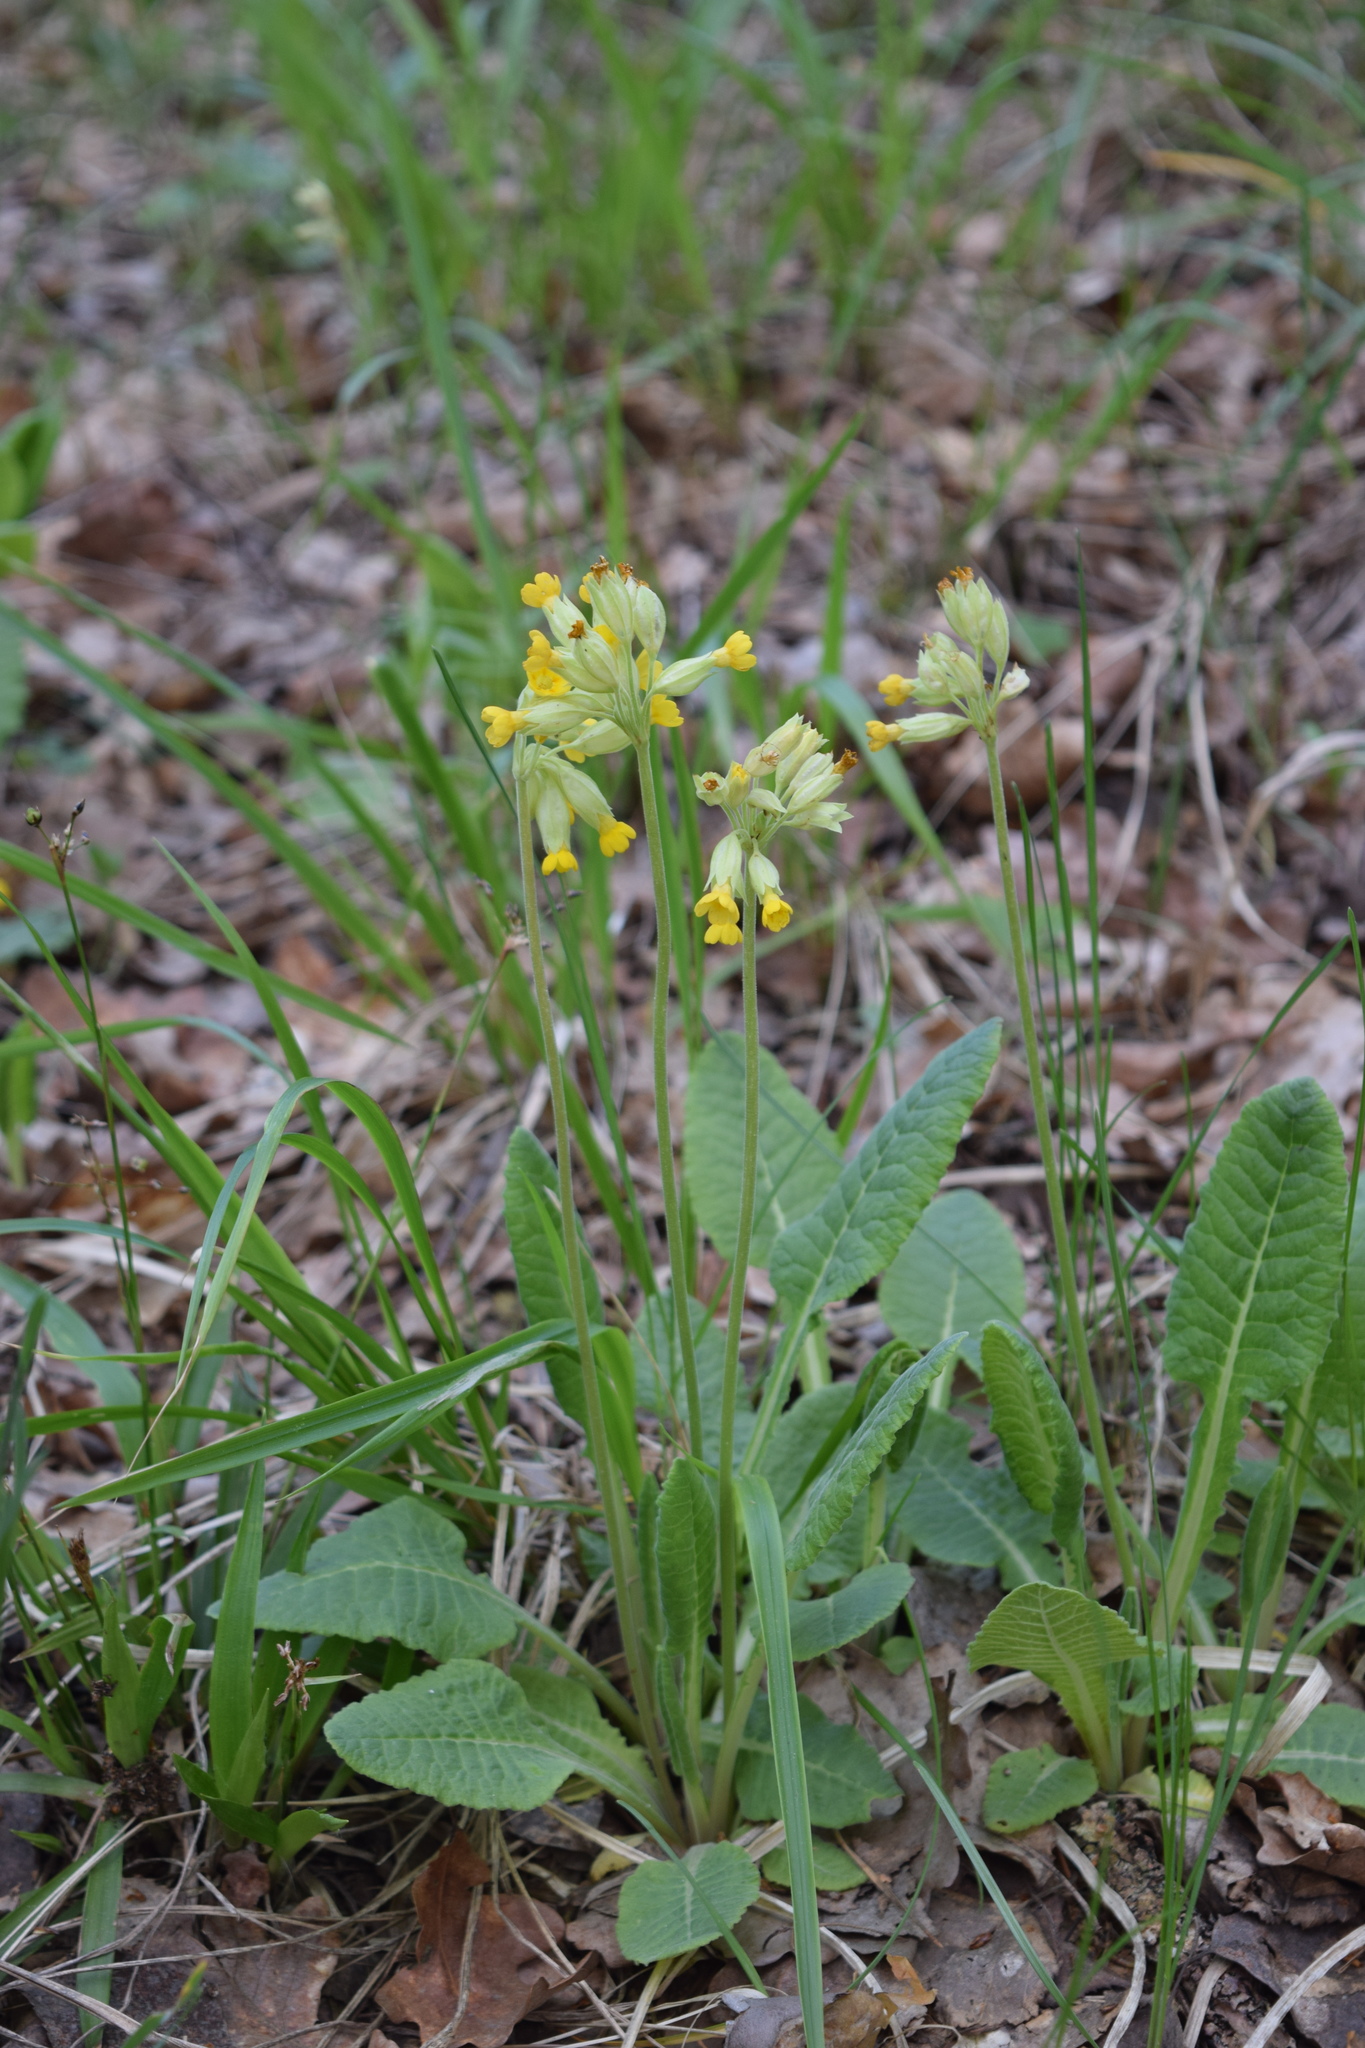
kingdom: Plantae
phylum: Tracheophyta
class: Magnoliopsida
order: Ericales
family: Primulaceae
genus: Primula
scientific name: Primula veris
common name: Cowslip
